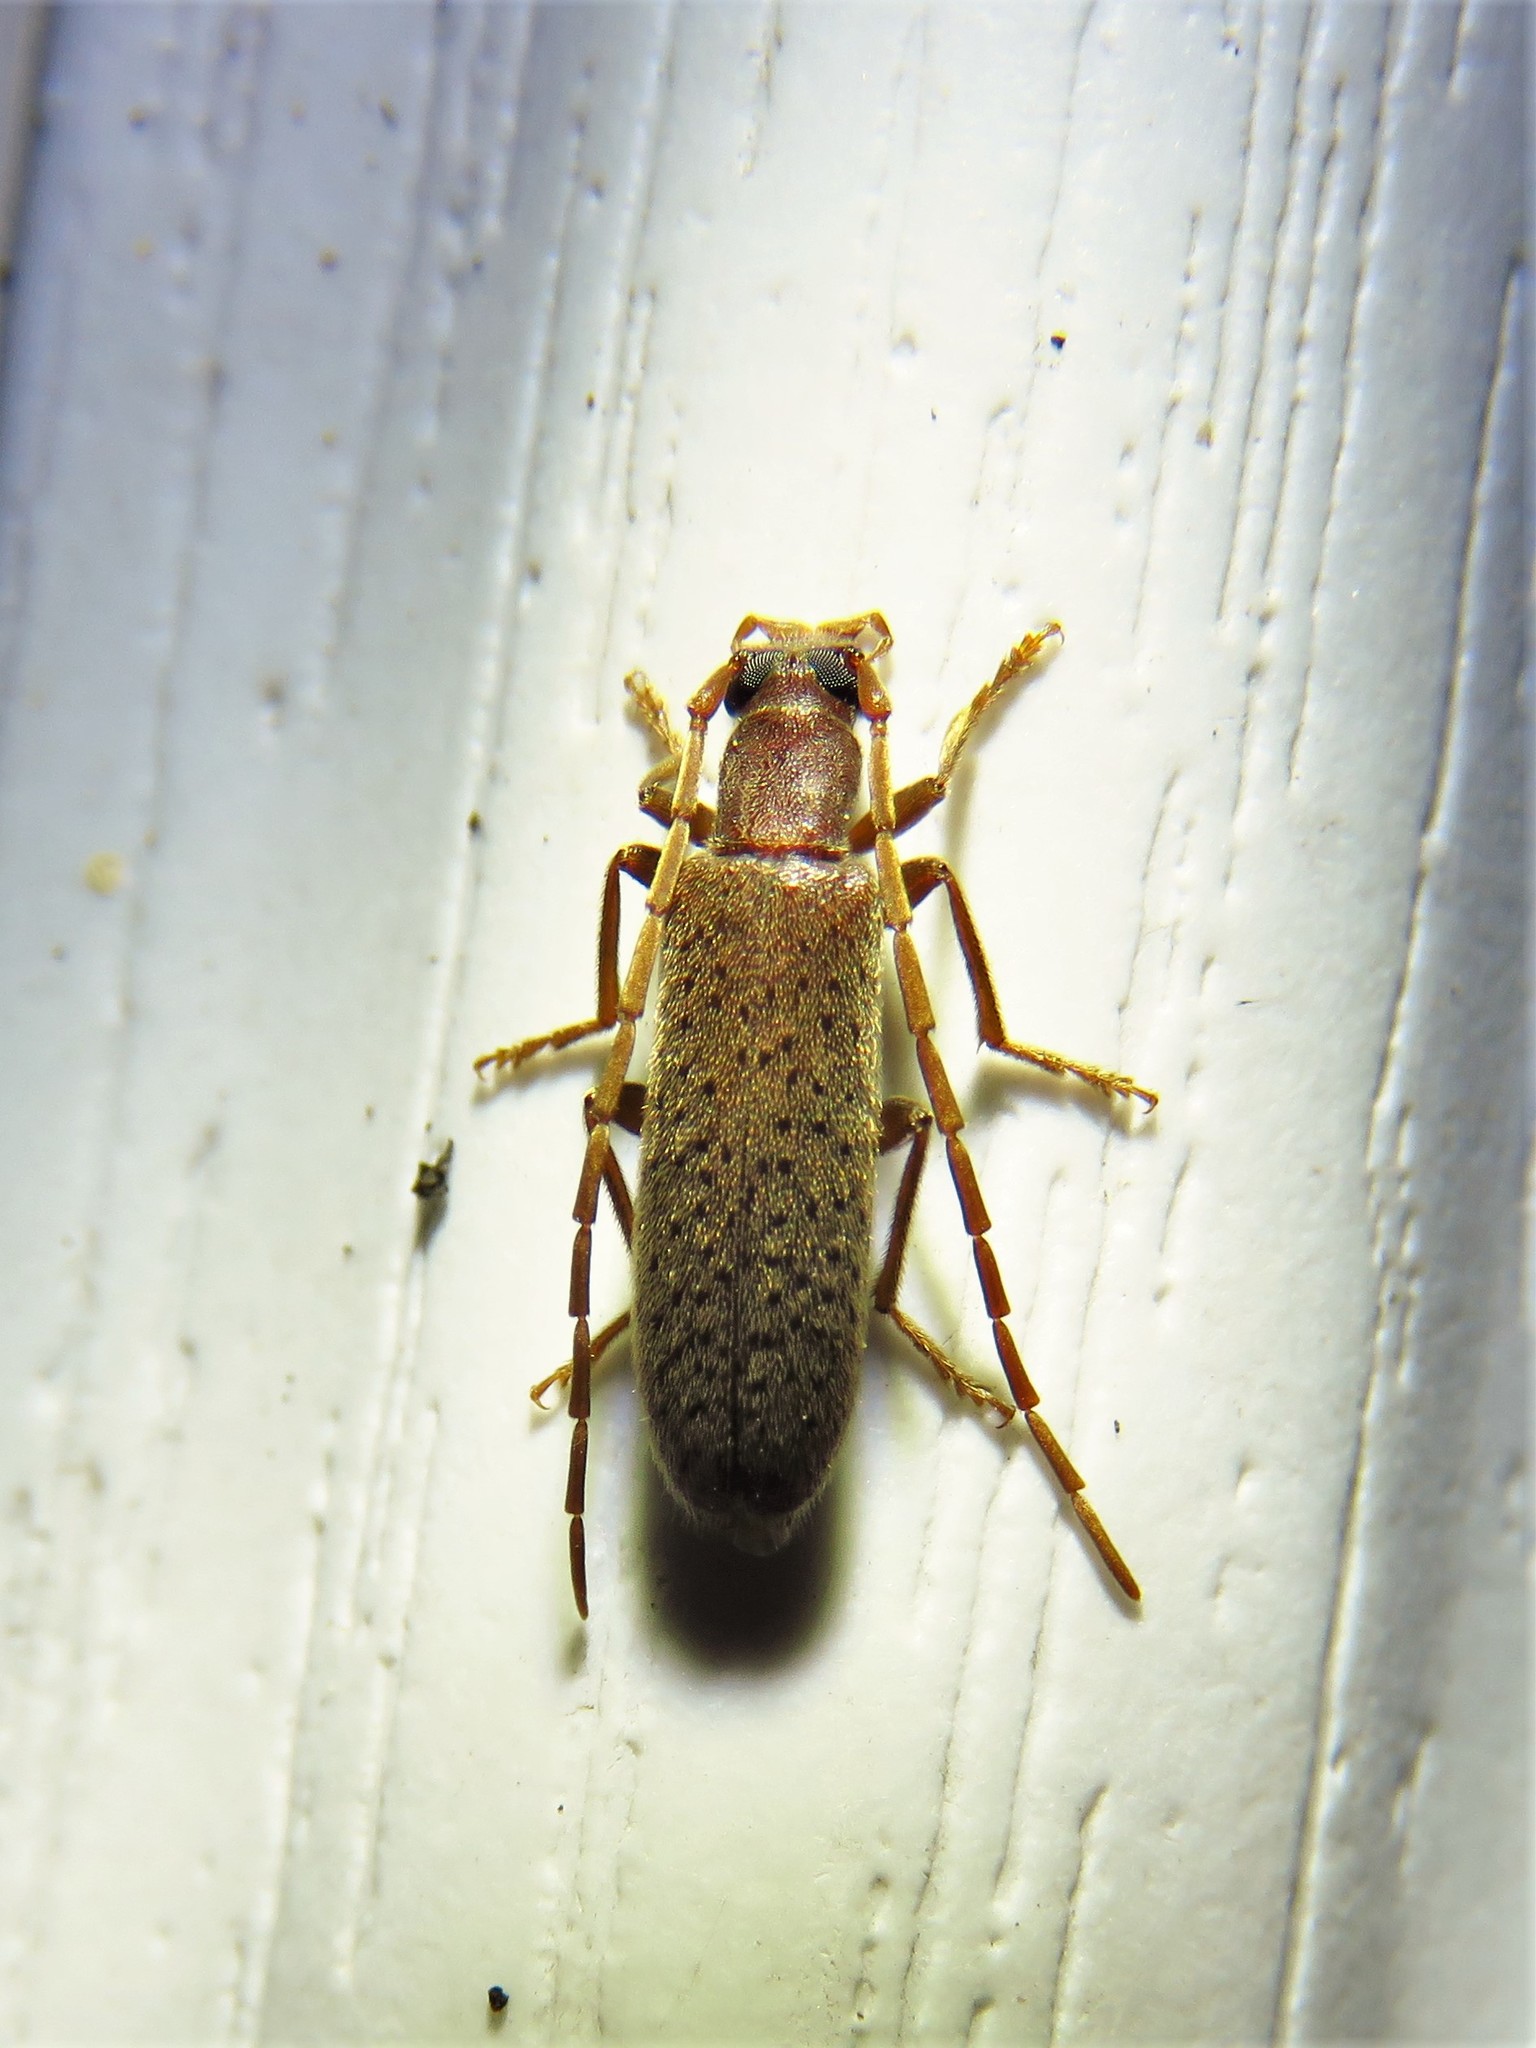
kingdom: Animalia
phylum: Arthropoda
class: Insecta
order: Coleoptera
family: Oedemeridae
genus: Sparedrus
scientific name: Sparedrus aspersus
